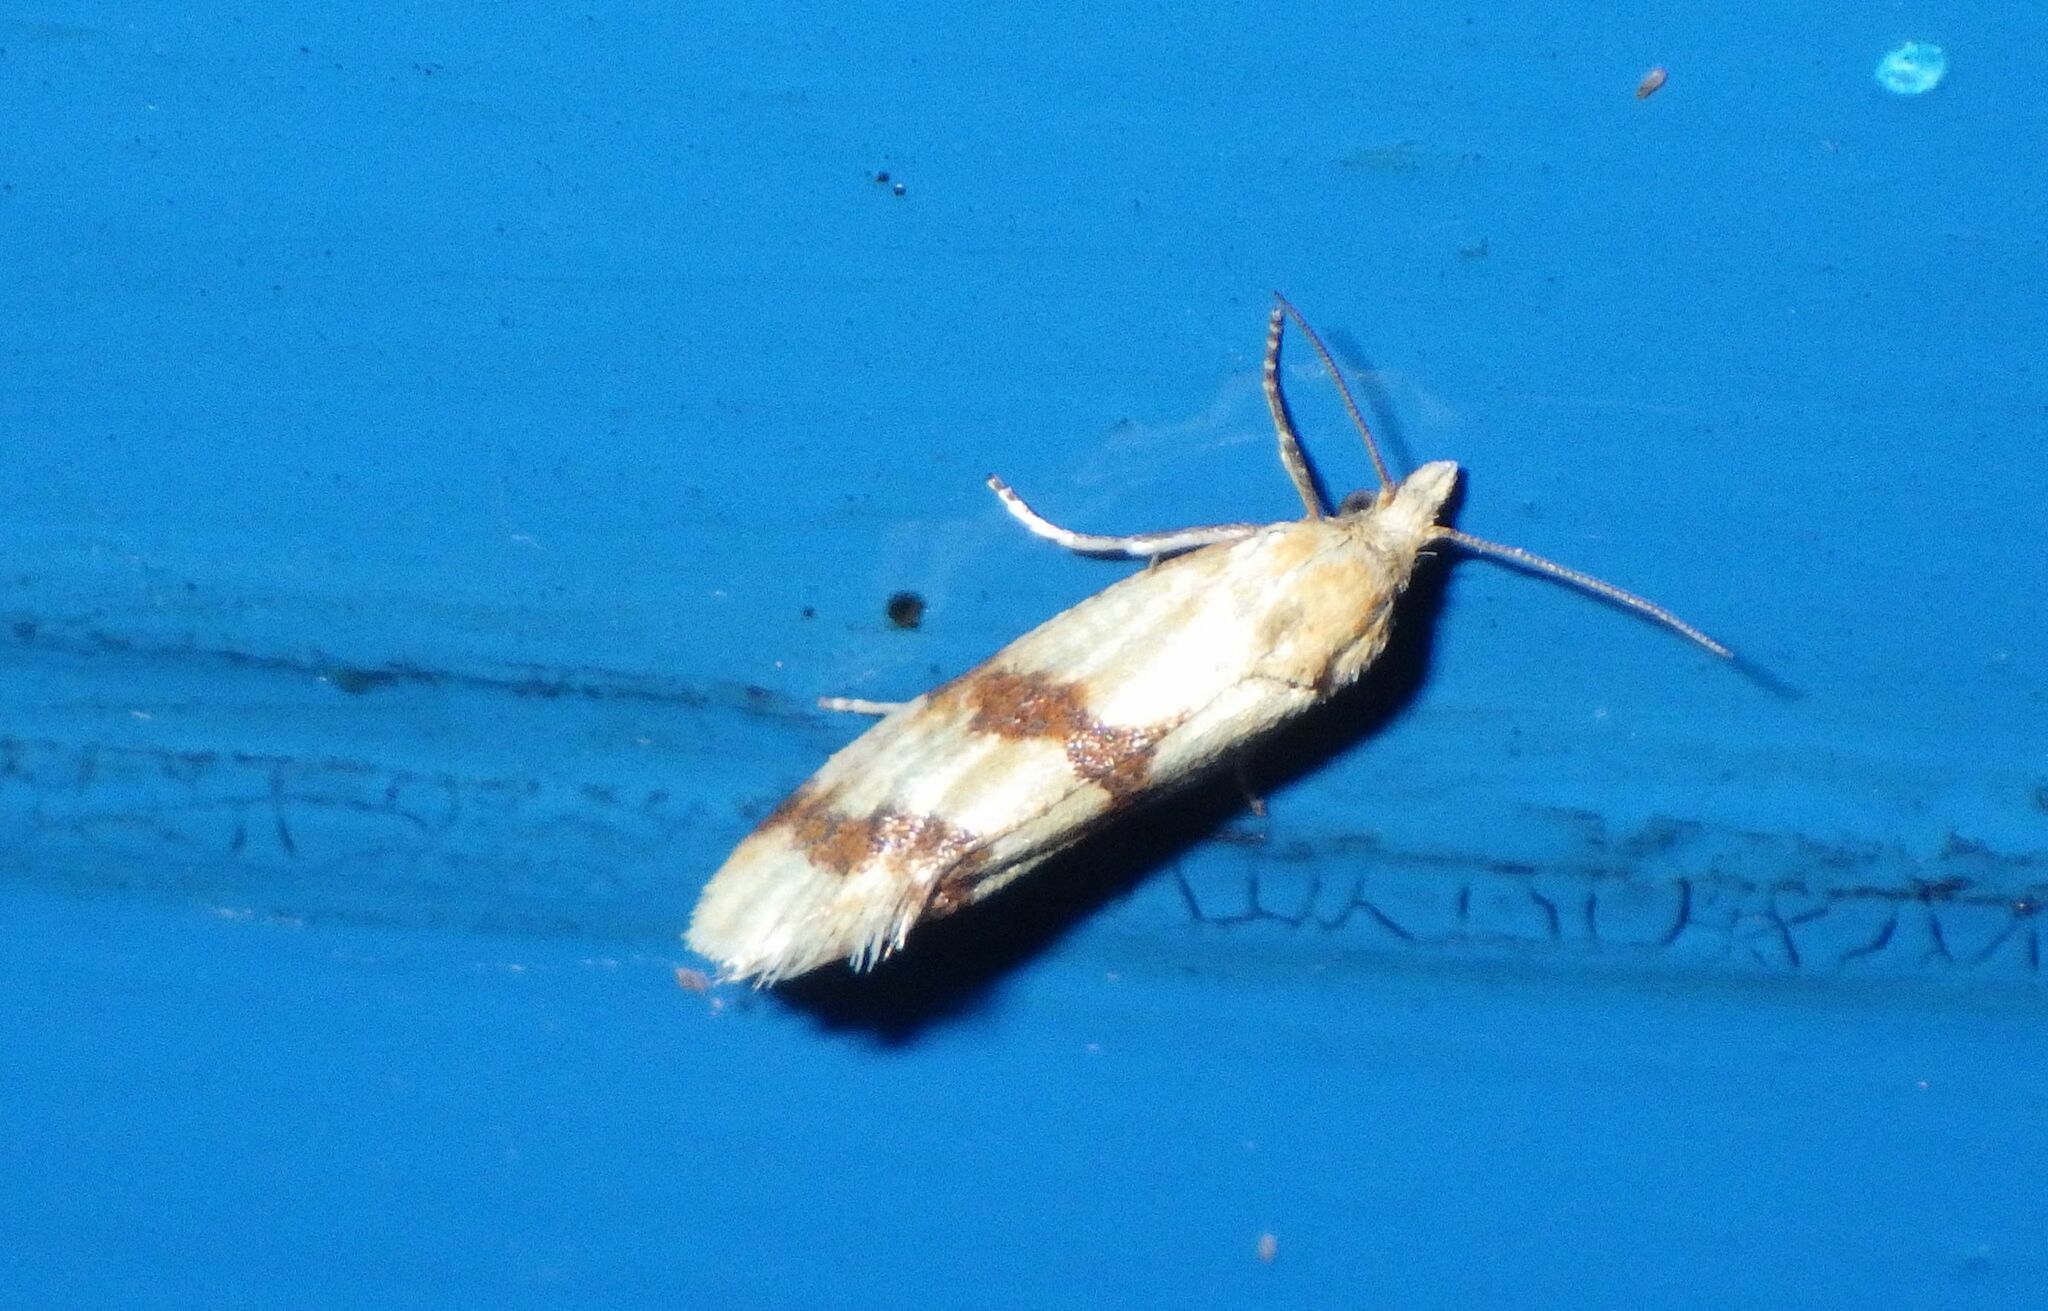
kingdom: Animalia
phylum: Arthropoda
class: Insecta
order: Lepidoptera
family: Tortricidae
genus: Aethes
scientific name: Aethes francillana
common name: Long-barred yellow conch
